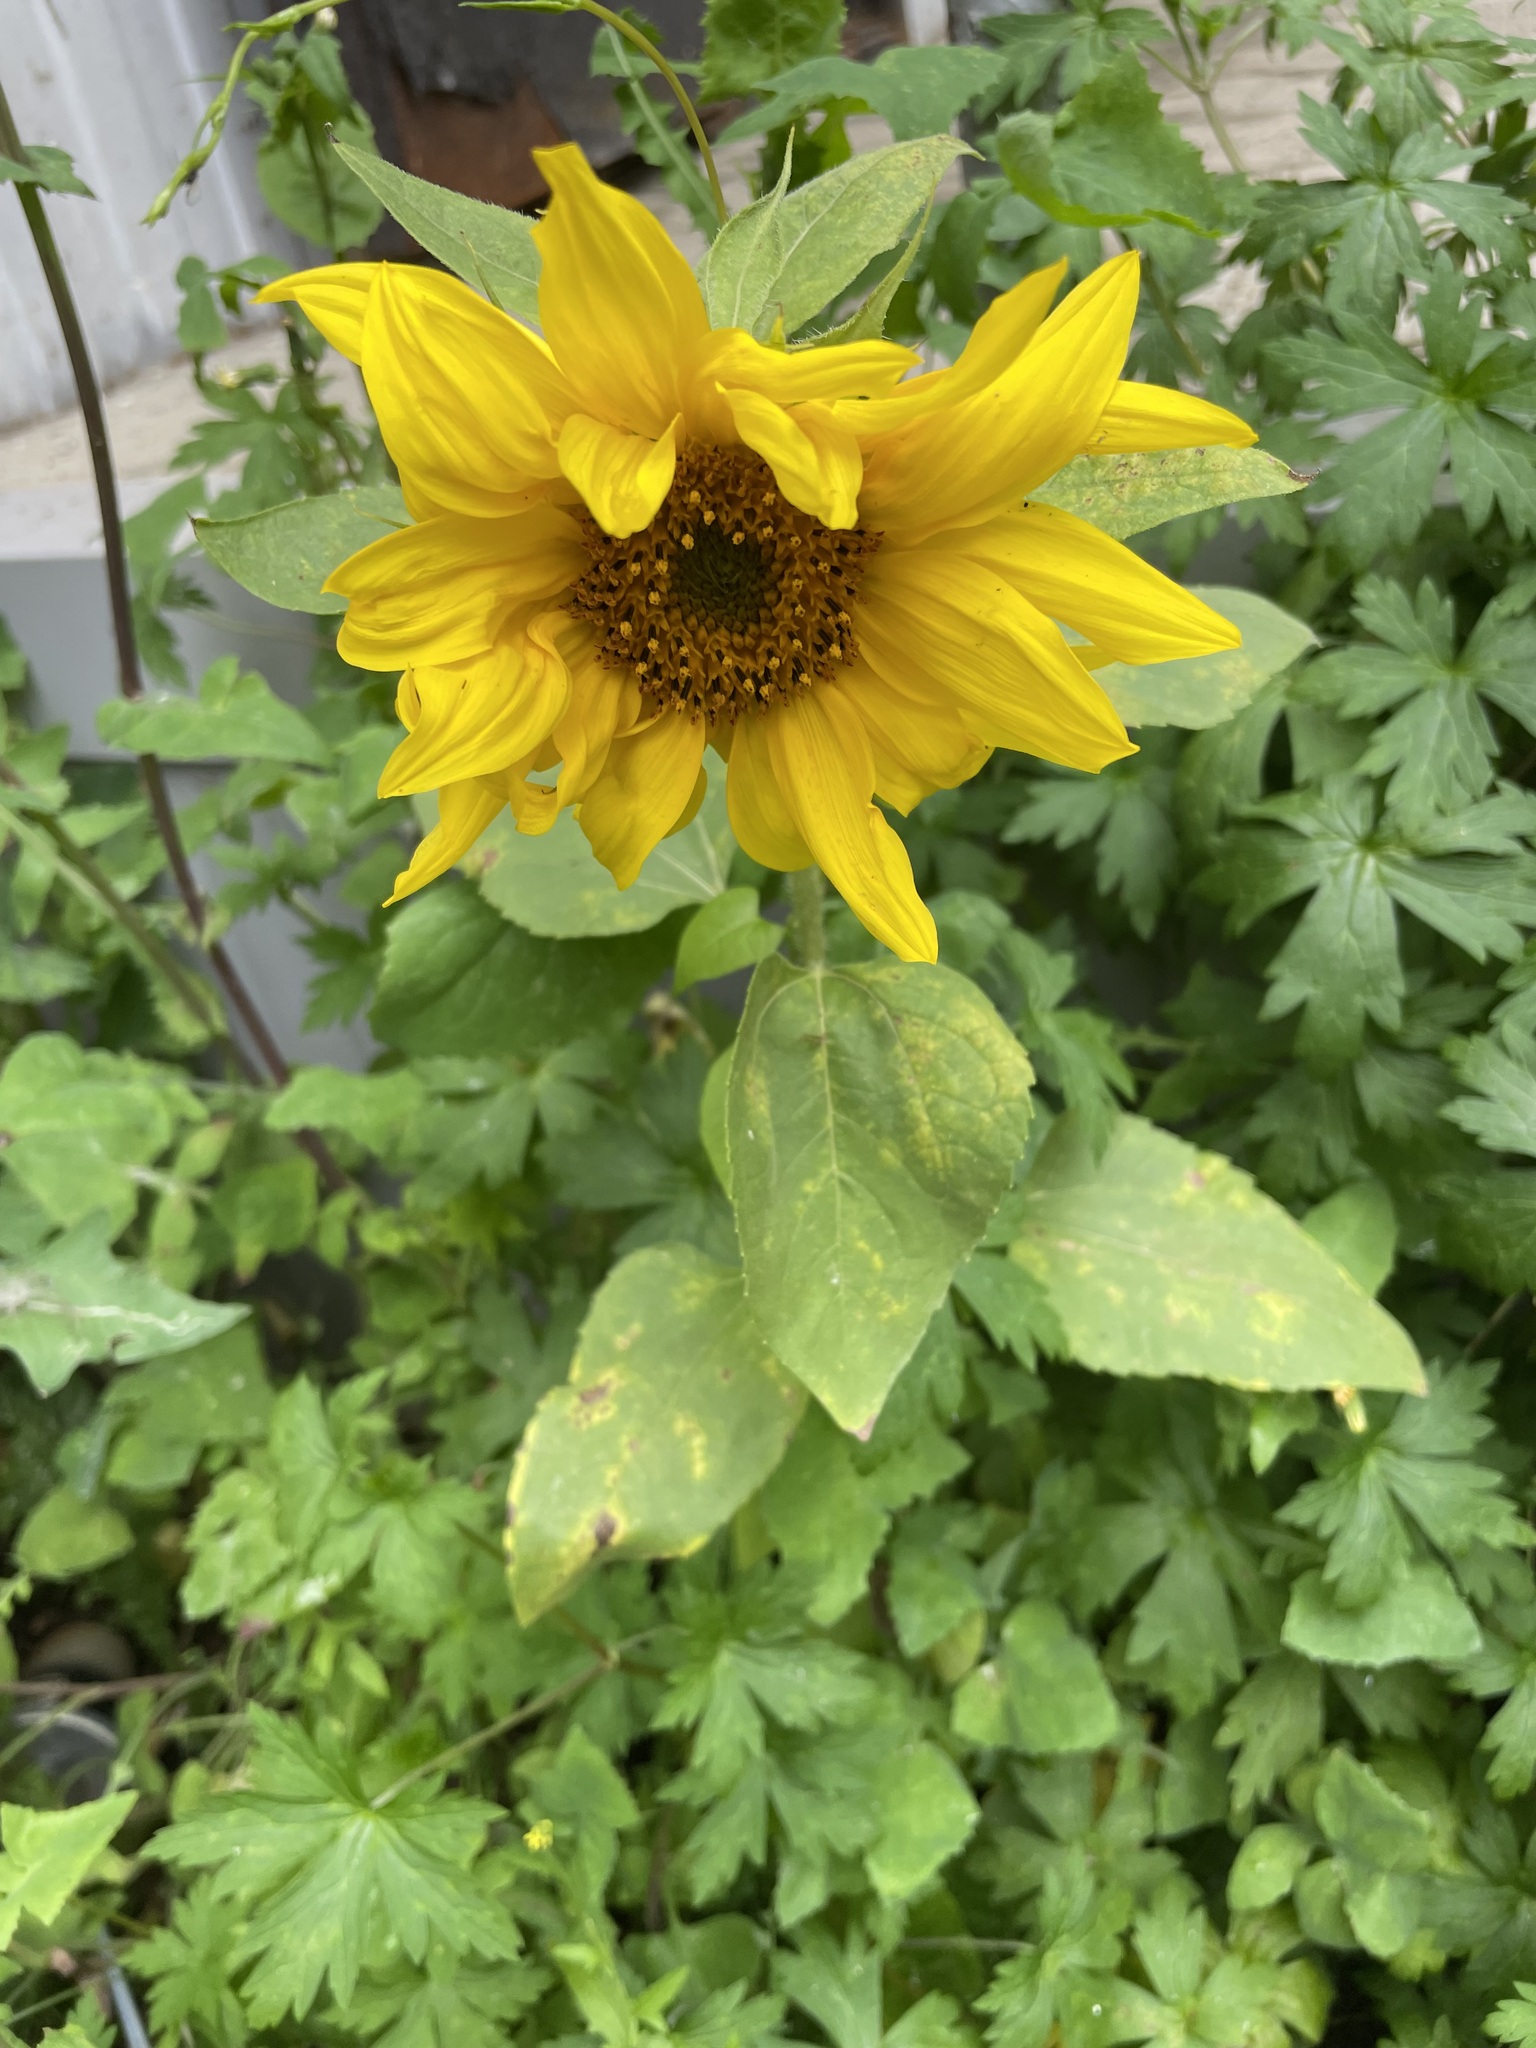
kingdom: Plantae
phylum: Tracheophyta
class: Magnoliopsida
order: Asterales
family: Asteraceae
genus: Helianthus
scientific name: Helianthus annuus
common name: Sunflower
